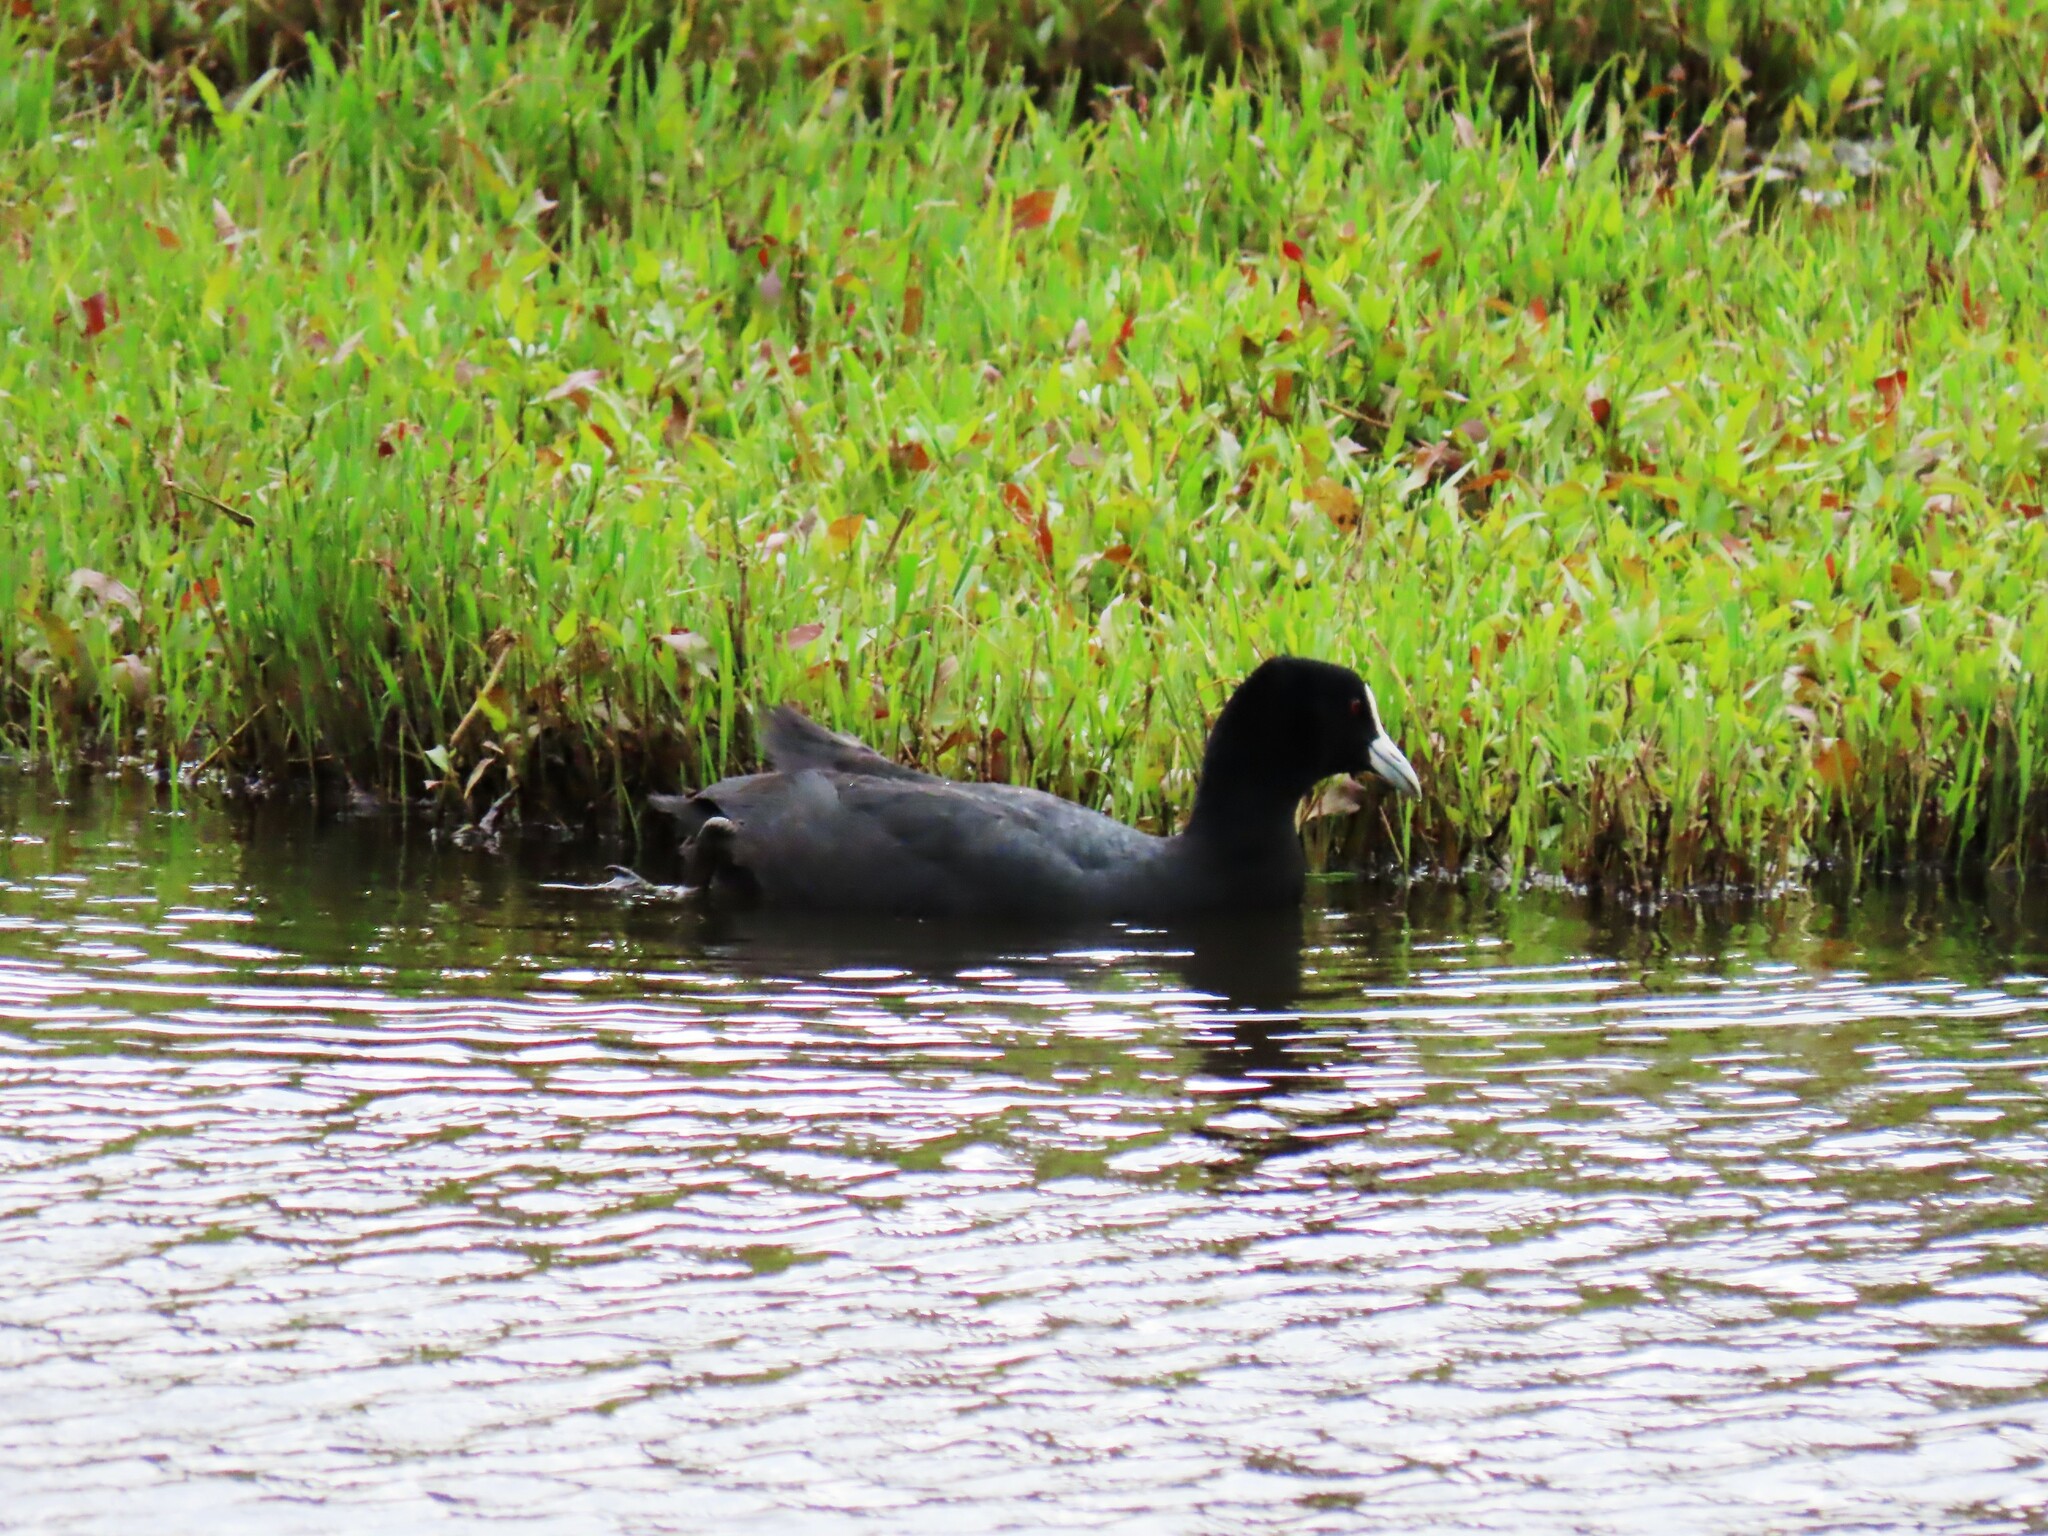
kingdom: Animalia
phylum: Chordata
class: Aves
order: Gruiformes
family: Rallidae
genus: Fulica
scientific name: Fulica atra
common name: Eurasian coot
